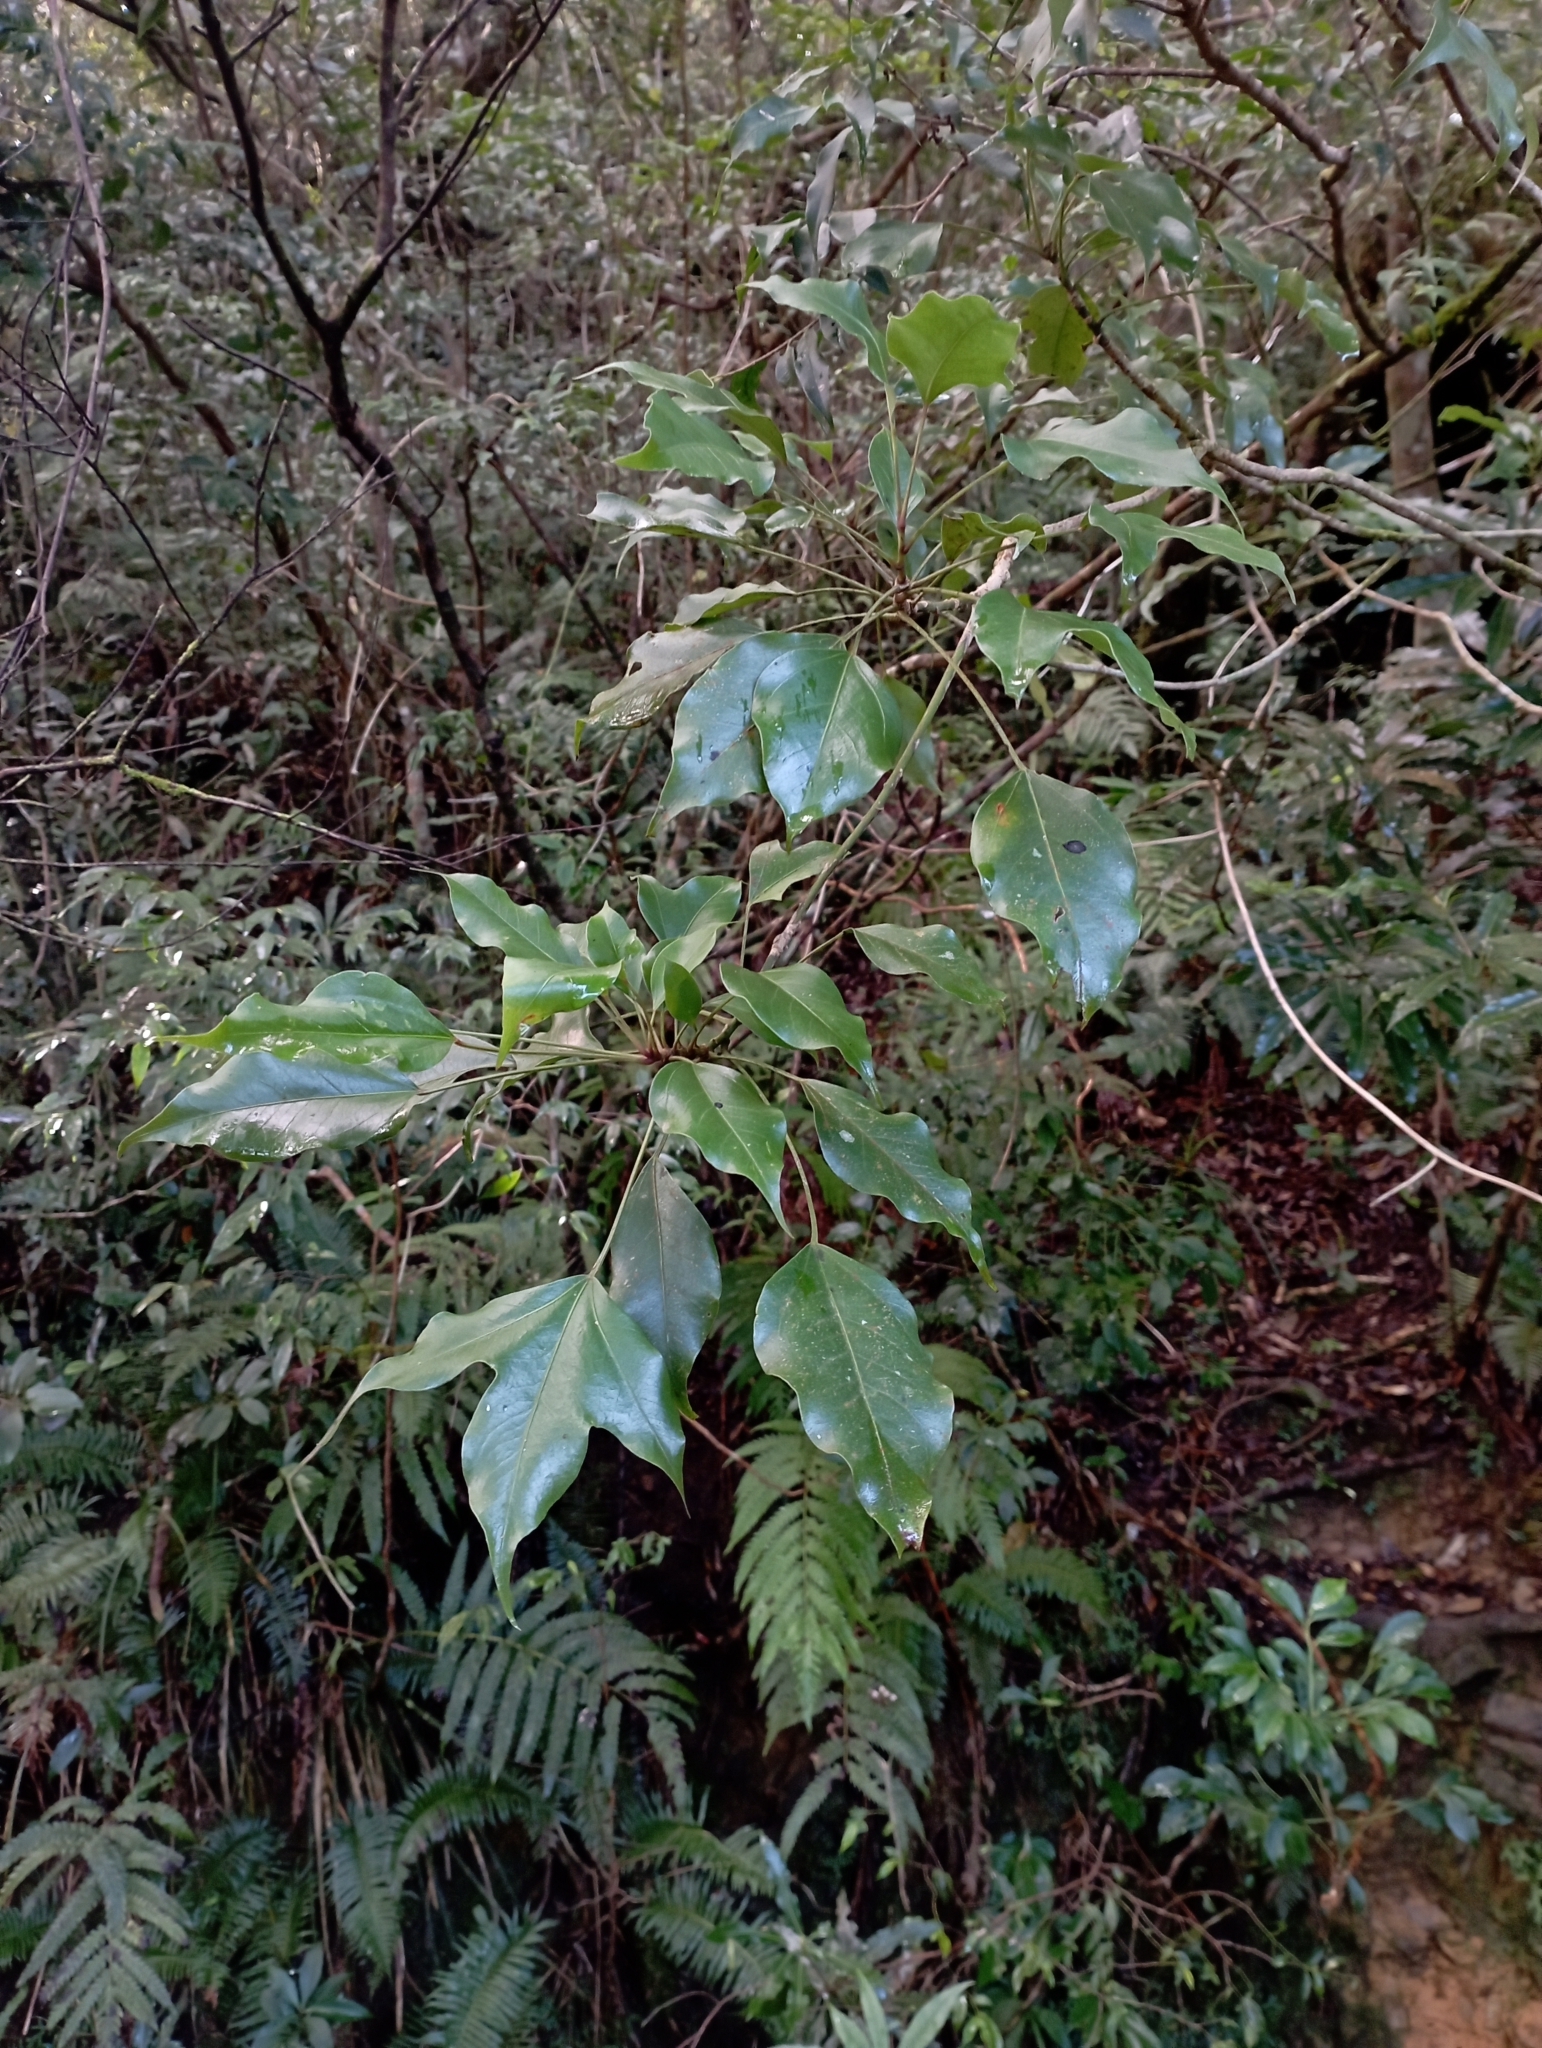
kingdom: Plantae
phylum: Tracheophyta
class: Magnoliopsida
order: Apiales
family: Araliaceae
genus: Dendropanax
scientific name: Dendropanax dentiger
